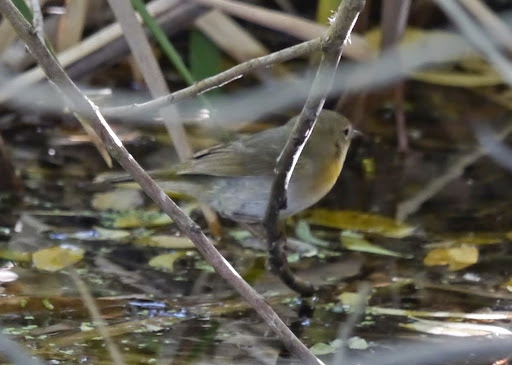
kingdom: Animalia
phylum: Chordata
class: Aves
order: Passeriformes
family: Parulidae
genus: Geothlypis
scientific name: Geothlypis trichas
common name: Common yellowthroat
